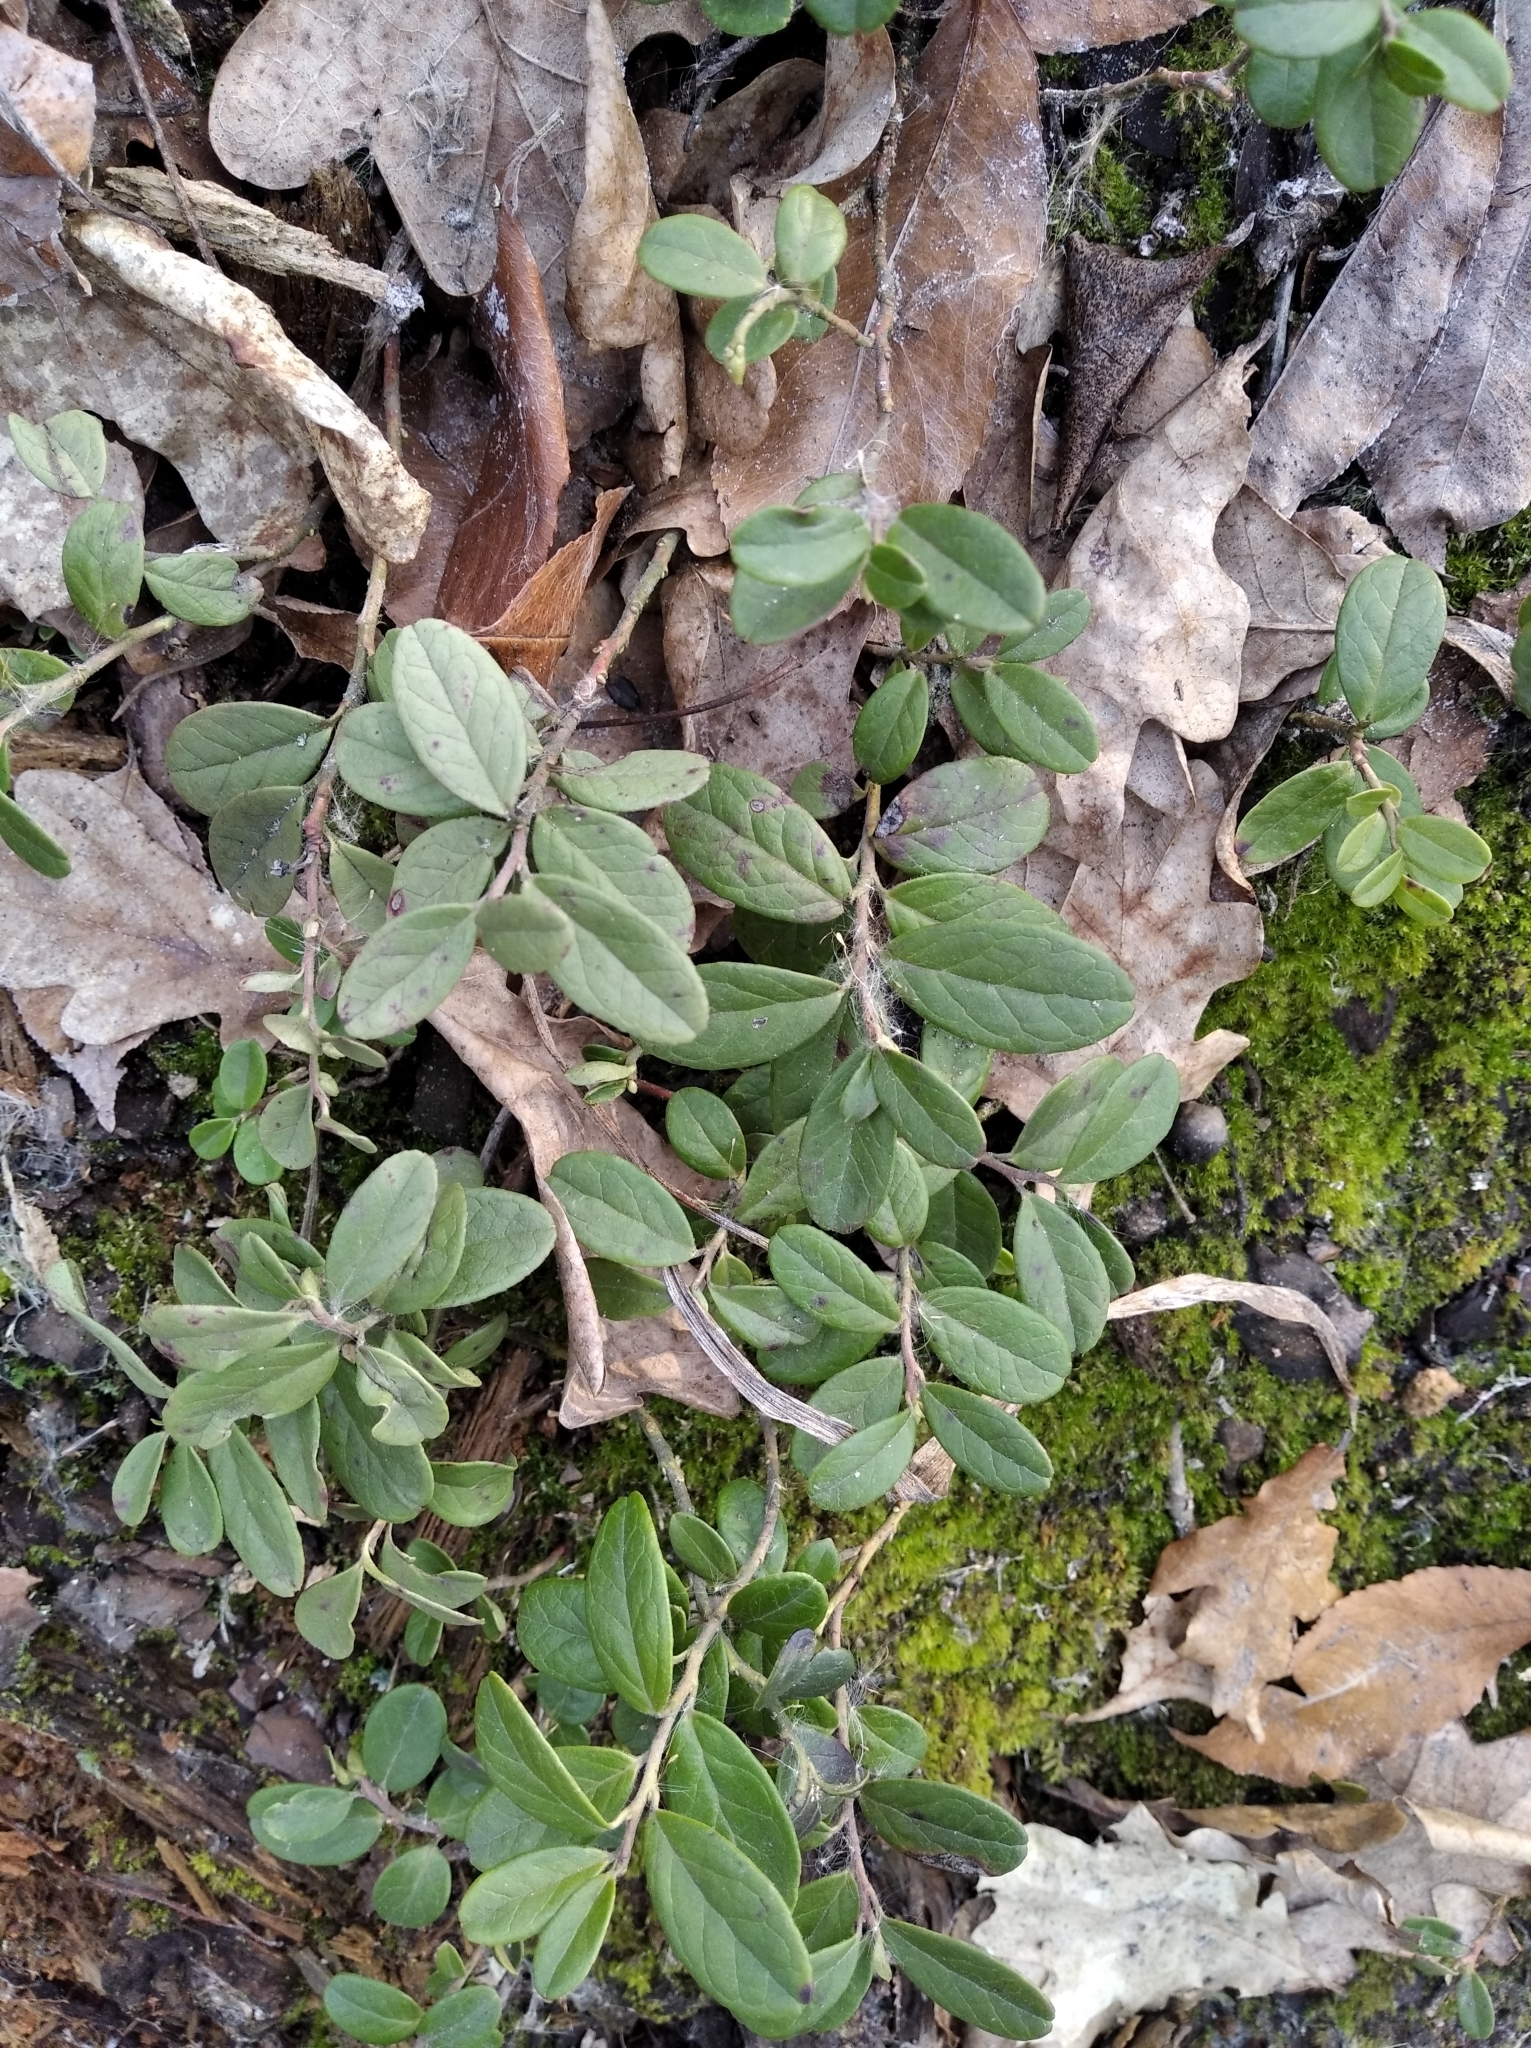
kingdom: Plantae
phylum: Tracheophyta
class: Magnoliopsida
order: Ericales
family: Ericaceae
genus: Vaccinium
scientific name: Vaccinium vitis-idaea
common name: Cowberry
